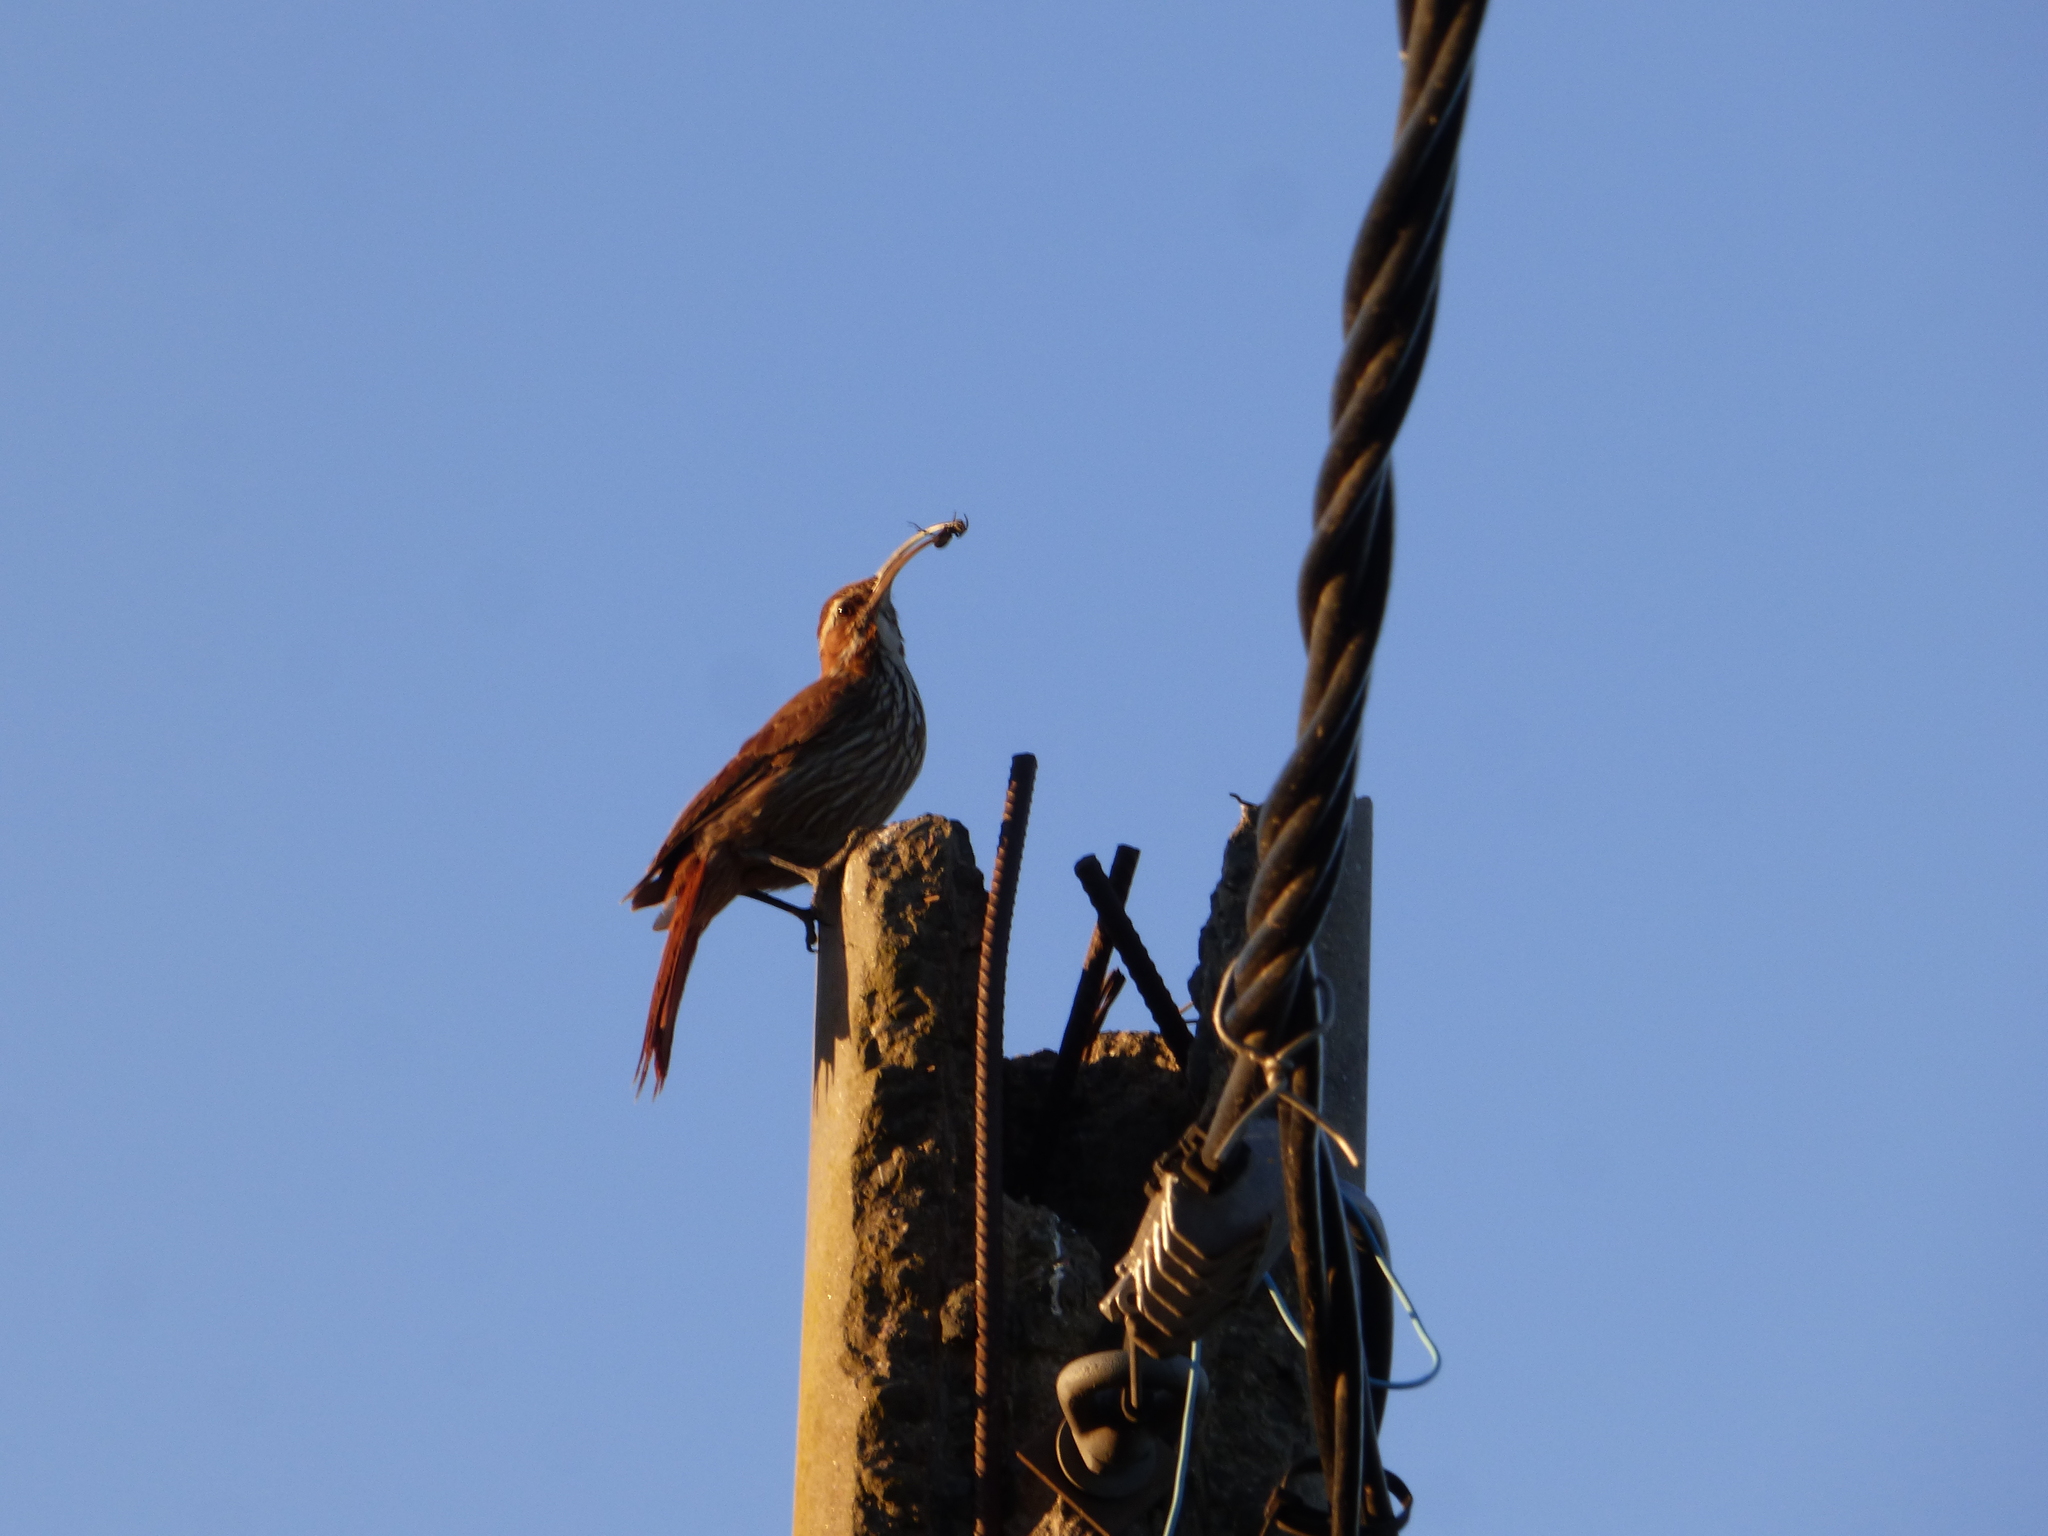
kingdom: Animalia
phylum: Chordata
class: Aves
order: Passeriformes
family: Furnariidae
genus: Drymornis
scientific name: Drymornis bridgesii
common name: Scimitar-billed woodcreeper
